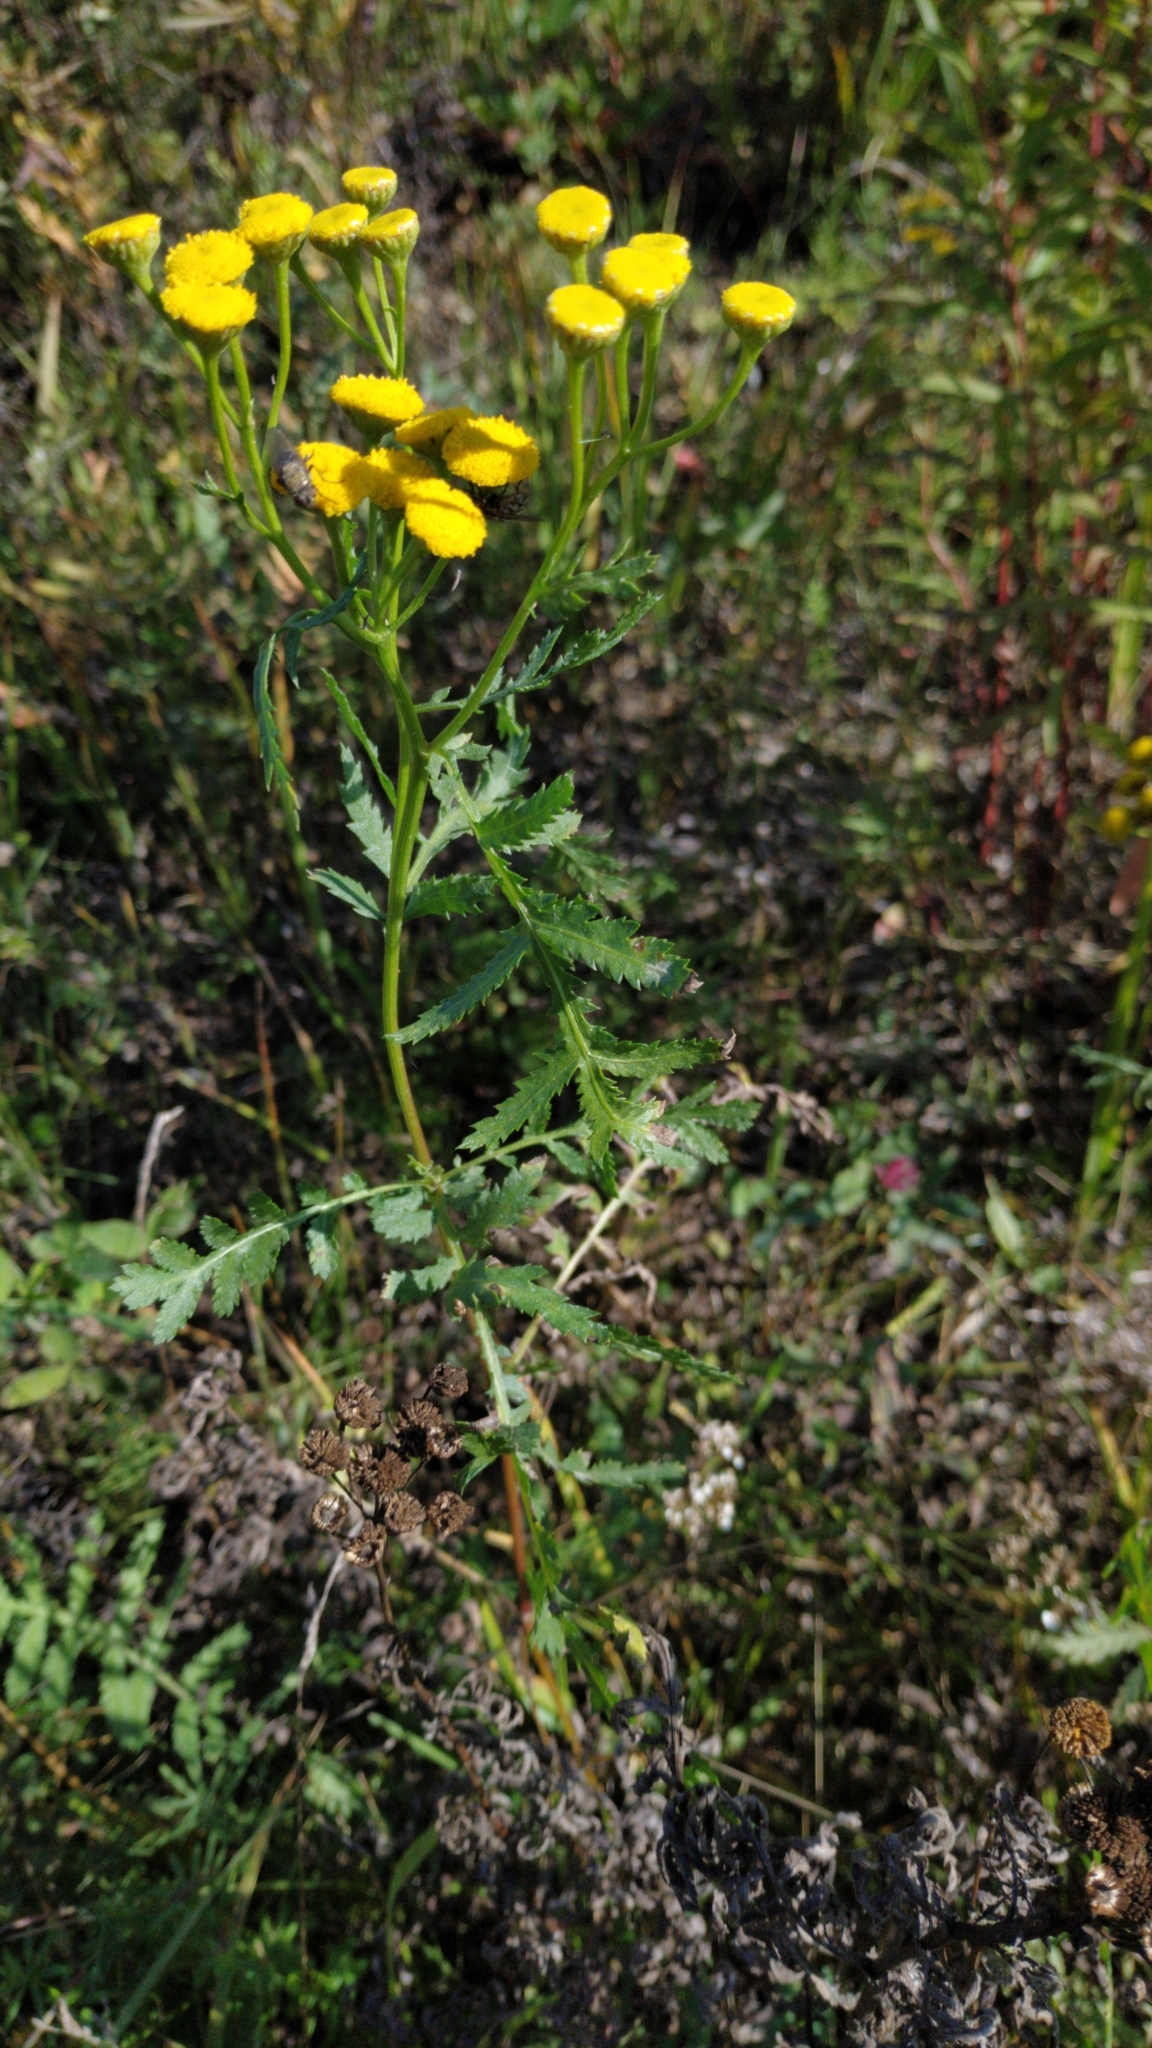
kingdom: Plantae
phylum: Tracheophyta
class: Magnoliopsida
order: Asterales
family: Asteraceae
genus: Tanacetum
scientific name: Tanacetum vulgare
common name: Common tansy
